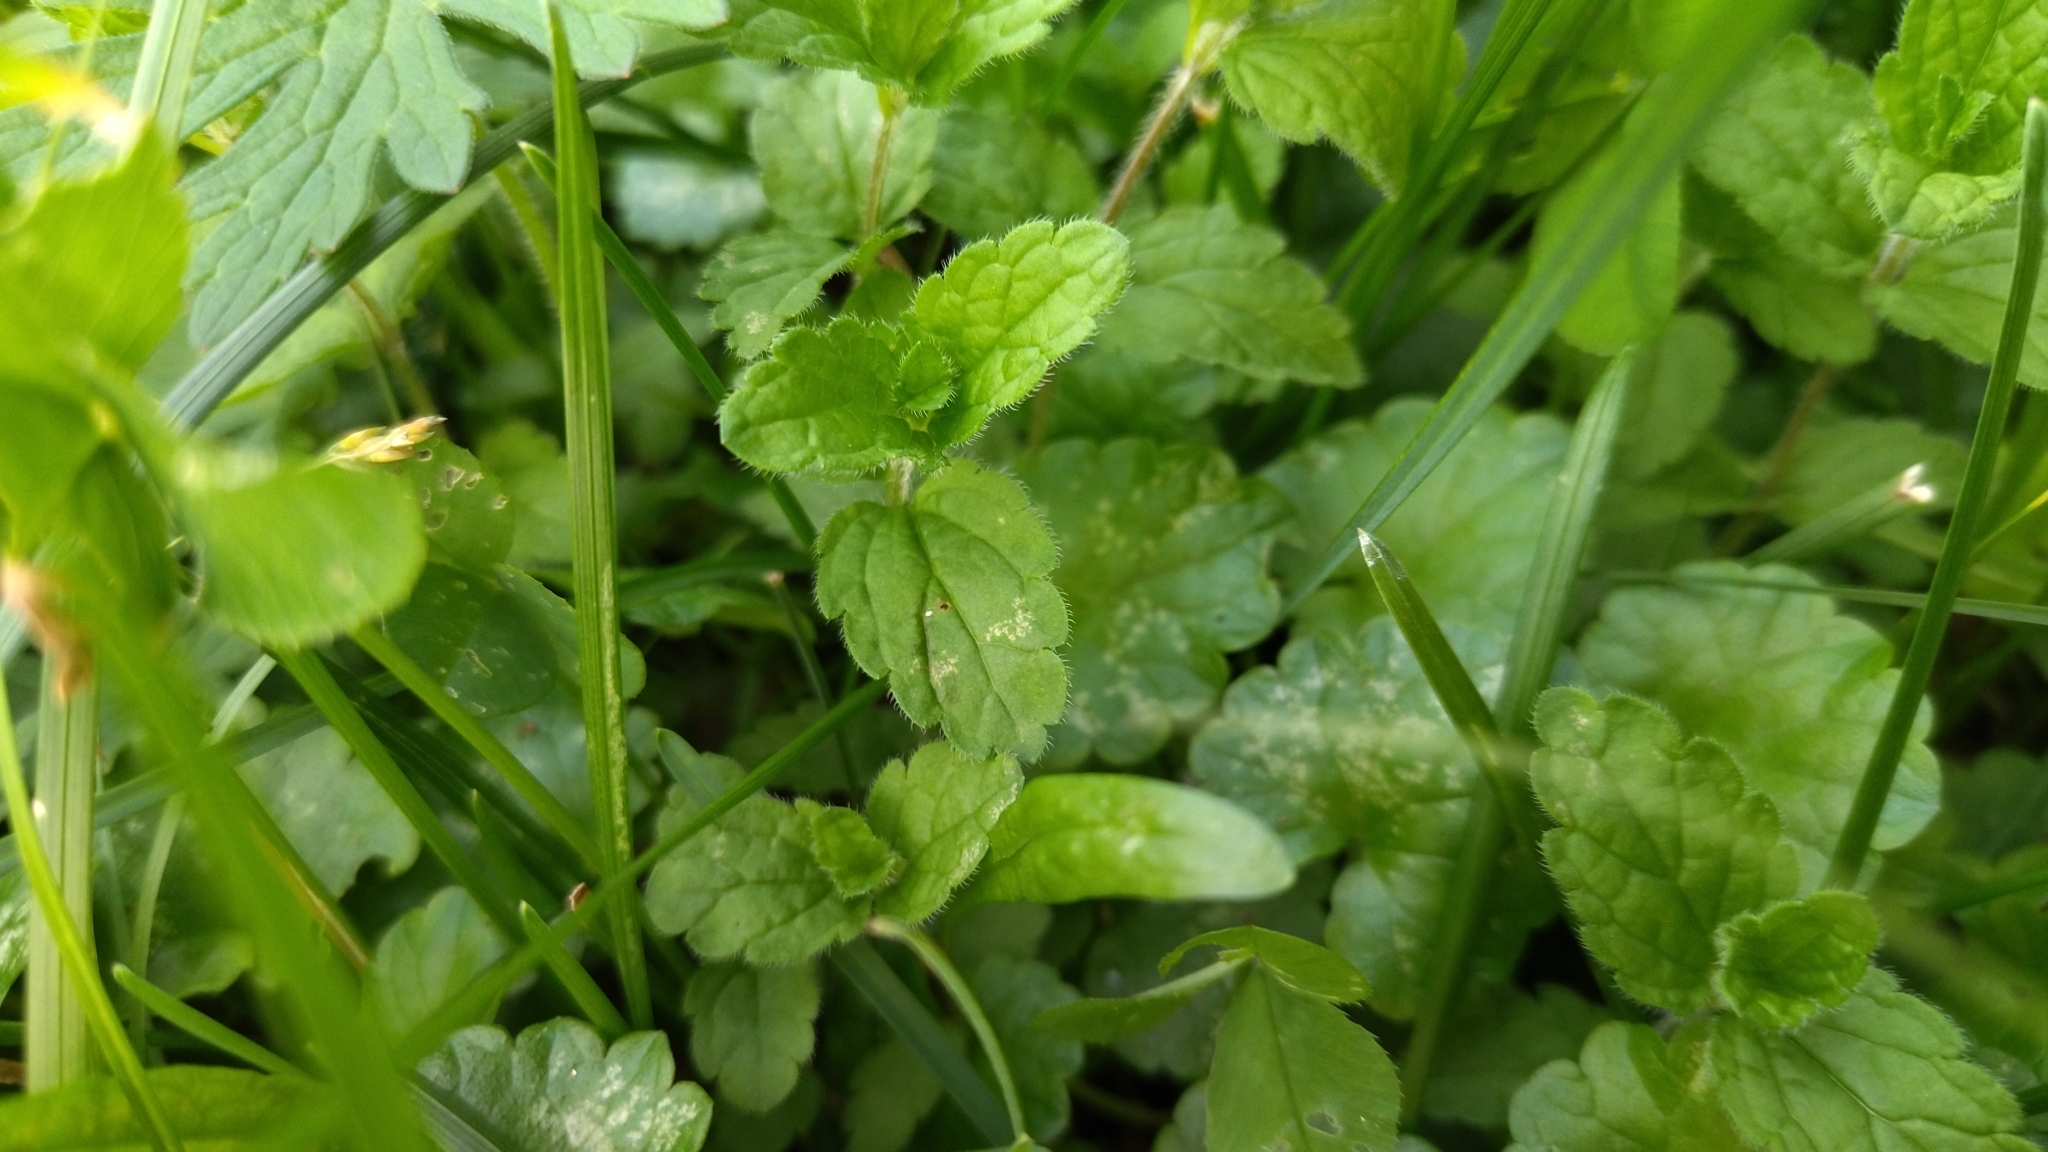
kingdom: Plantae
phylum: Tracheophyta
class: Magnoliopsida
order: Lamiales
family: Plantaginaceae
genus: Veronica
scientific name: Veronica chamaedrys
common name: Germander speedwell
